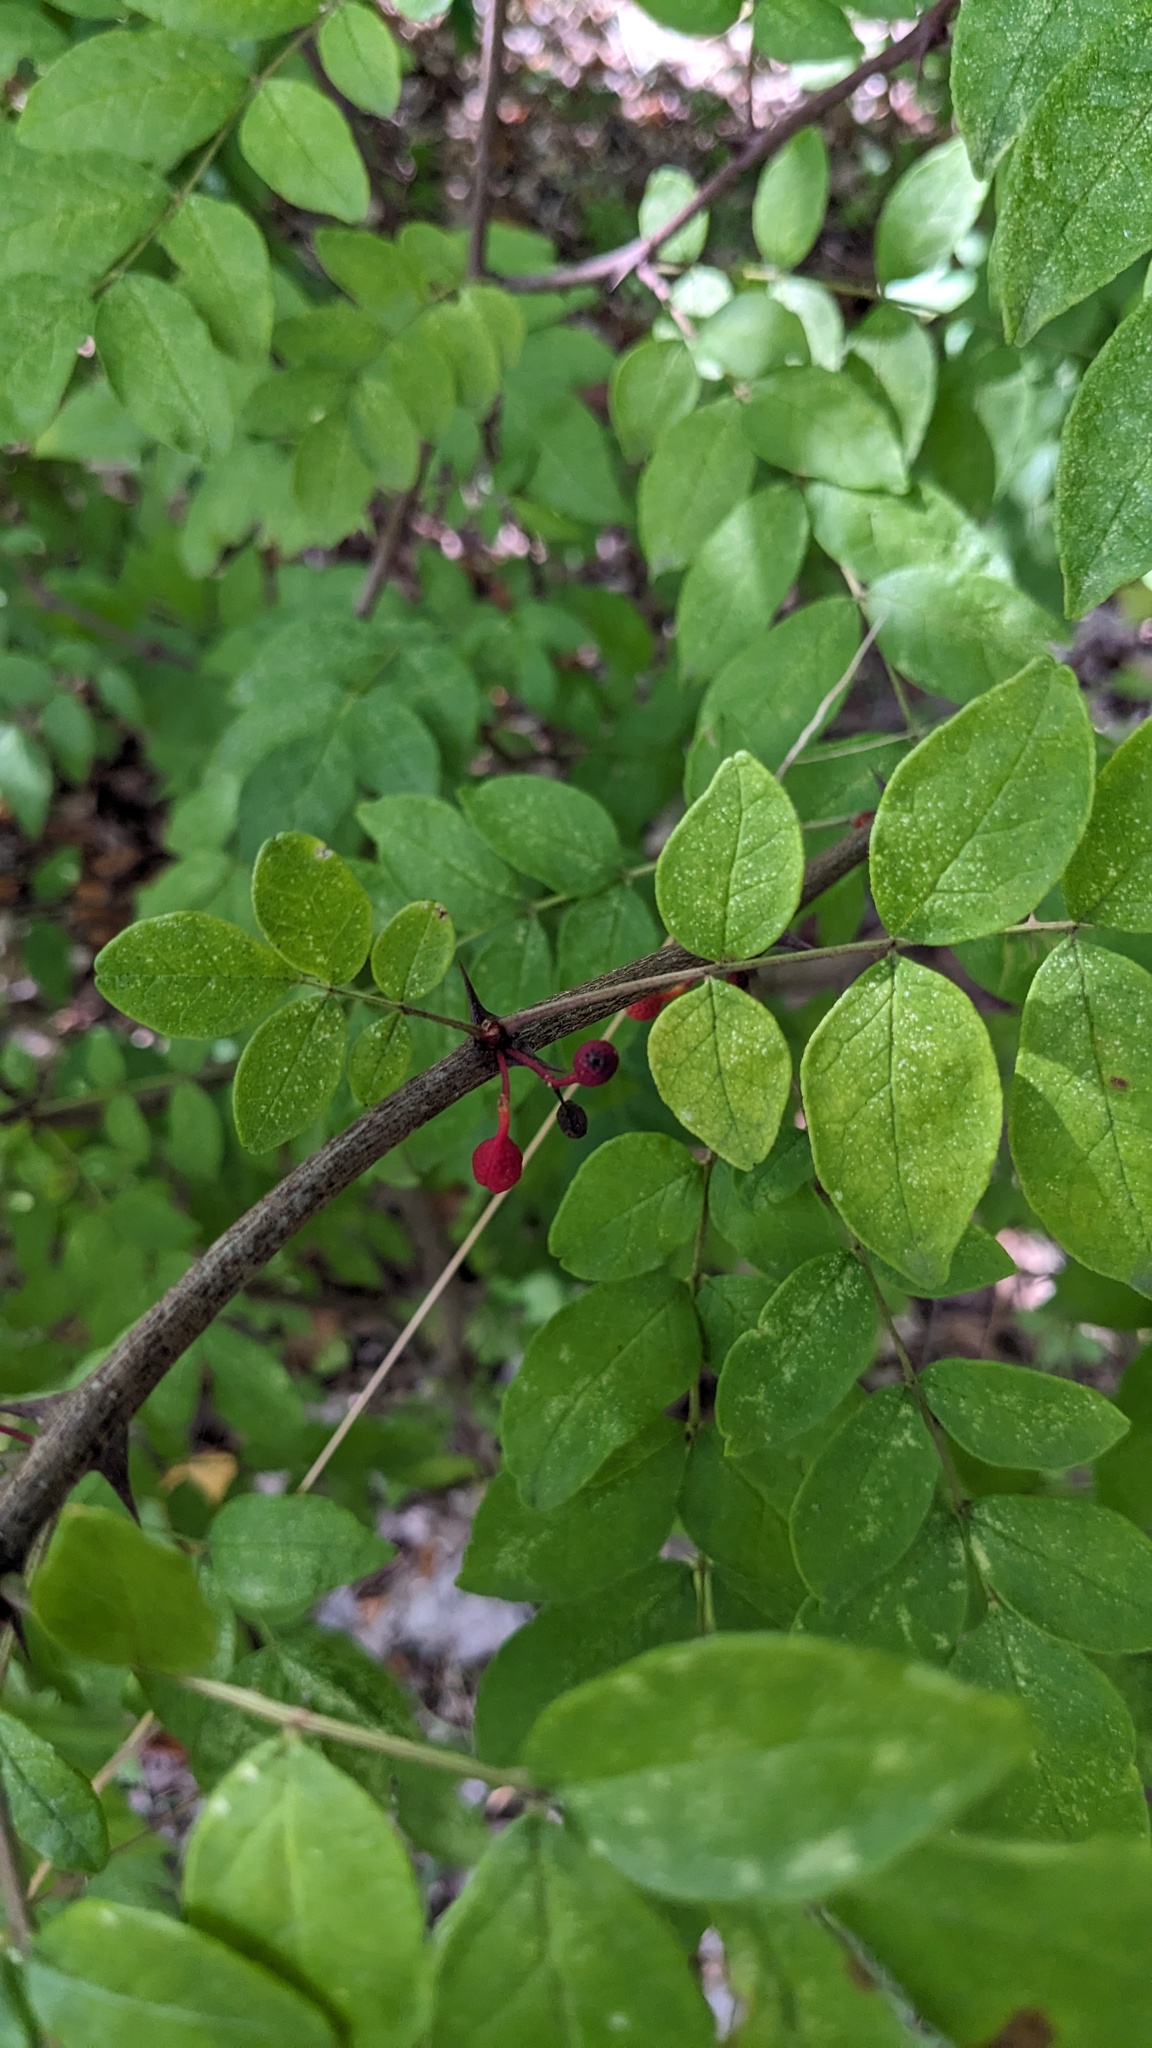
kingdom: Plantae
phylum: Tracheophyta
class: Magnoliopsida
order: Sapindales
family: Rutaceae
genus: Zanthoxylum
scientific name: Zanthoxylum americanum
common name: Northern prickly-ash
